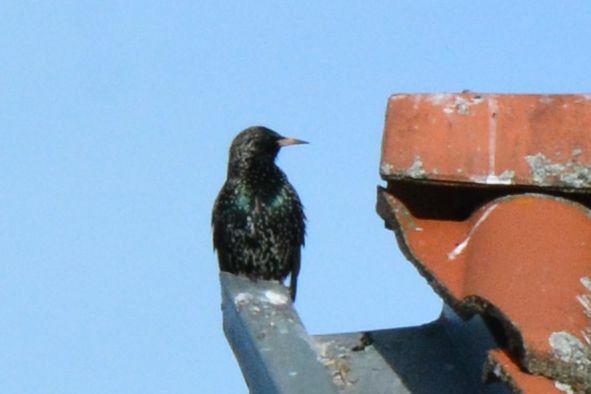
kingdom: Animalia
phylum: Chordata
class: Aves
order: Passeriformes
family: Sturnidae
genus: Sturnus
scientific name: Sturnus vulgaris
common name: Common starling
